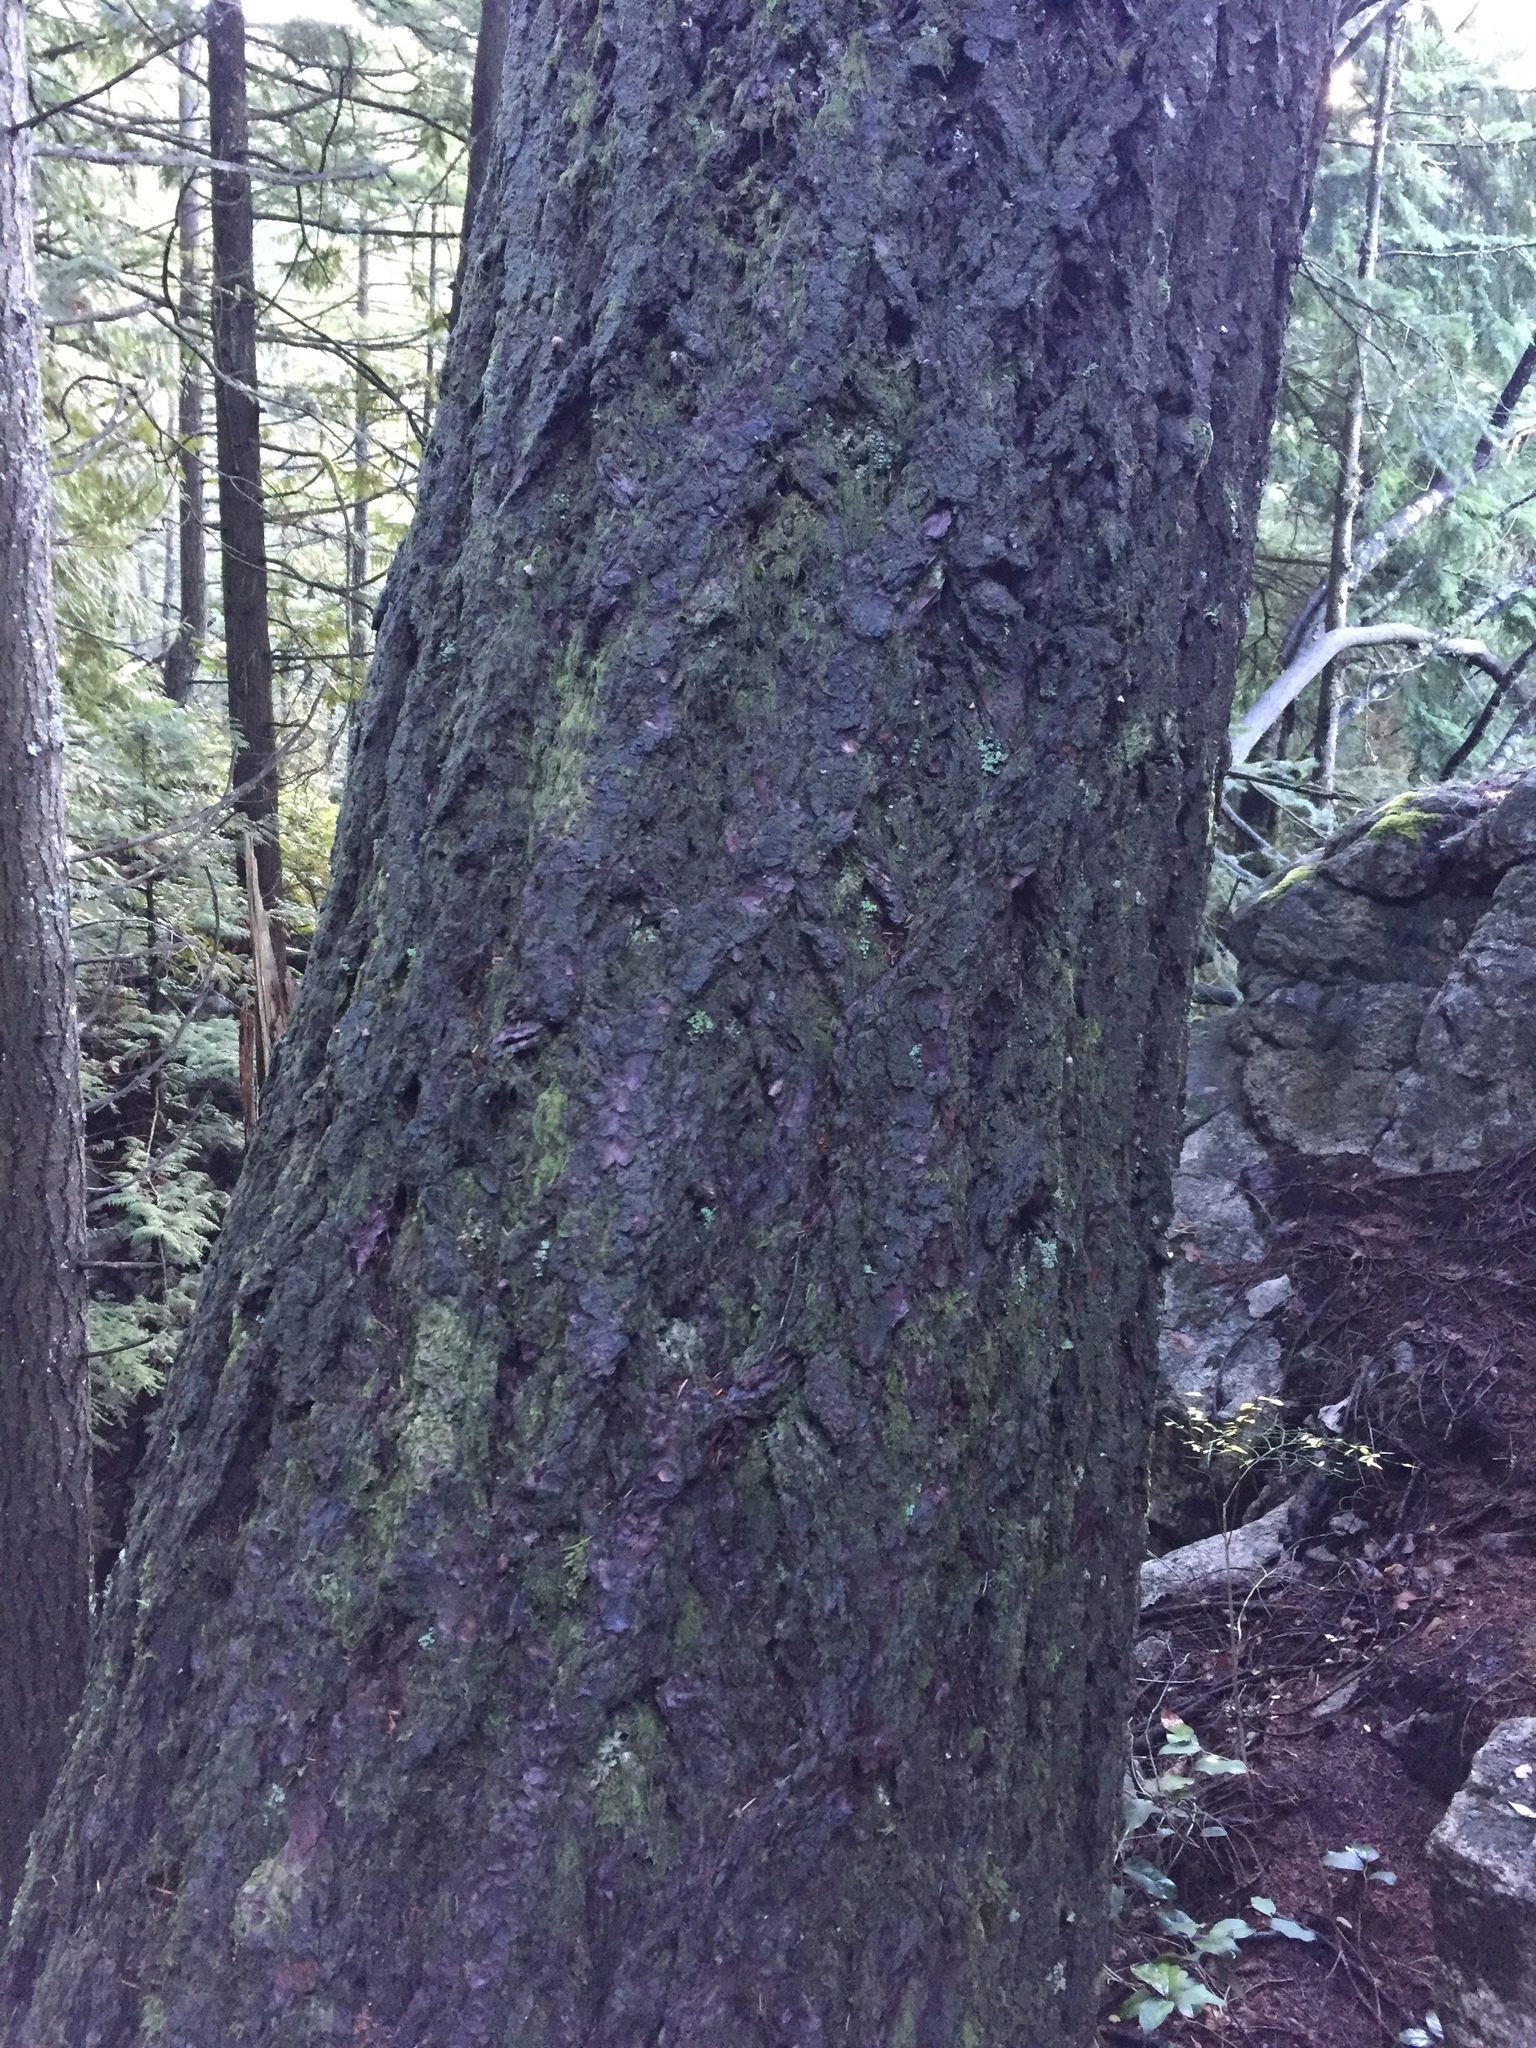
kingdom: Plantae
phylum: Tracheophyta
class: Pinopsida
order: Pinales
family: Pinaceae
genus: Pseudotsuga
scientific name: Pseudotsuga menziesii
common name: Douglas fir
